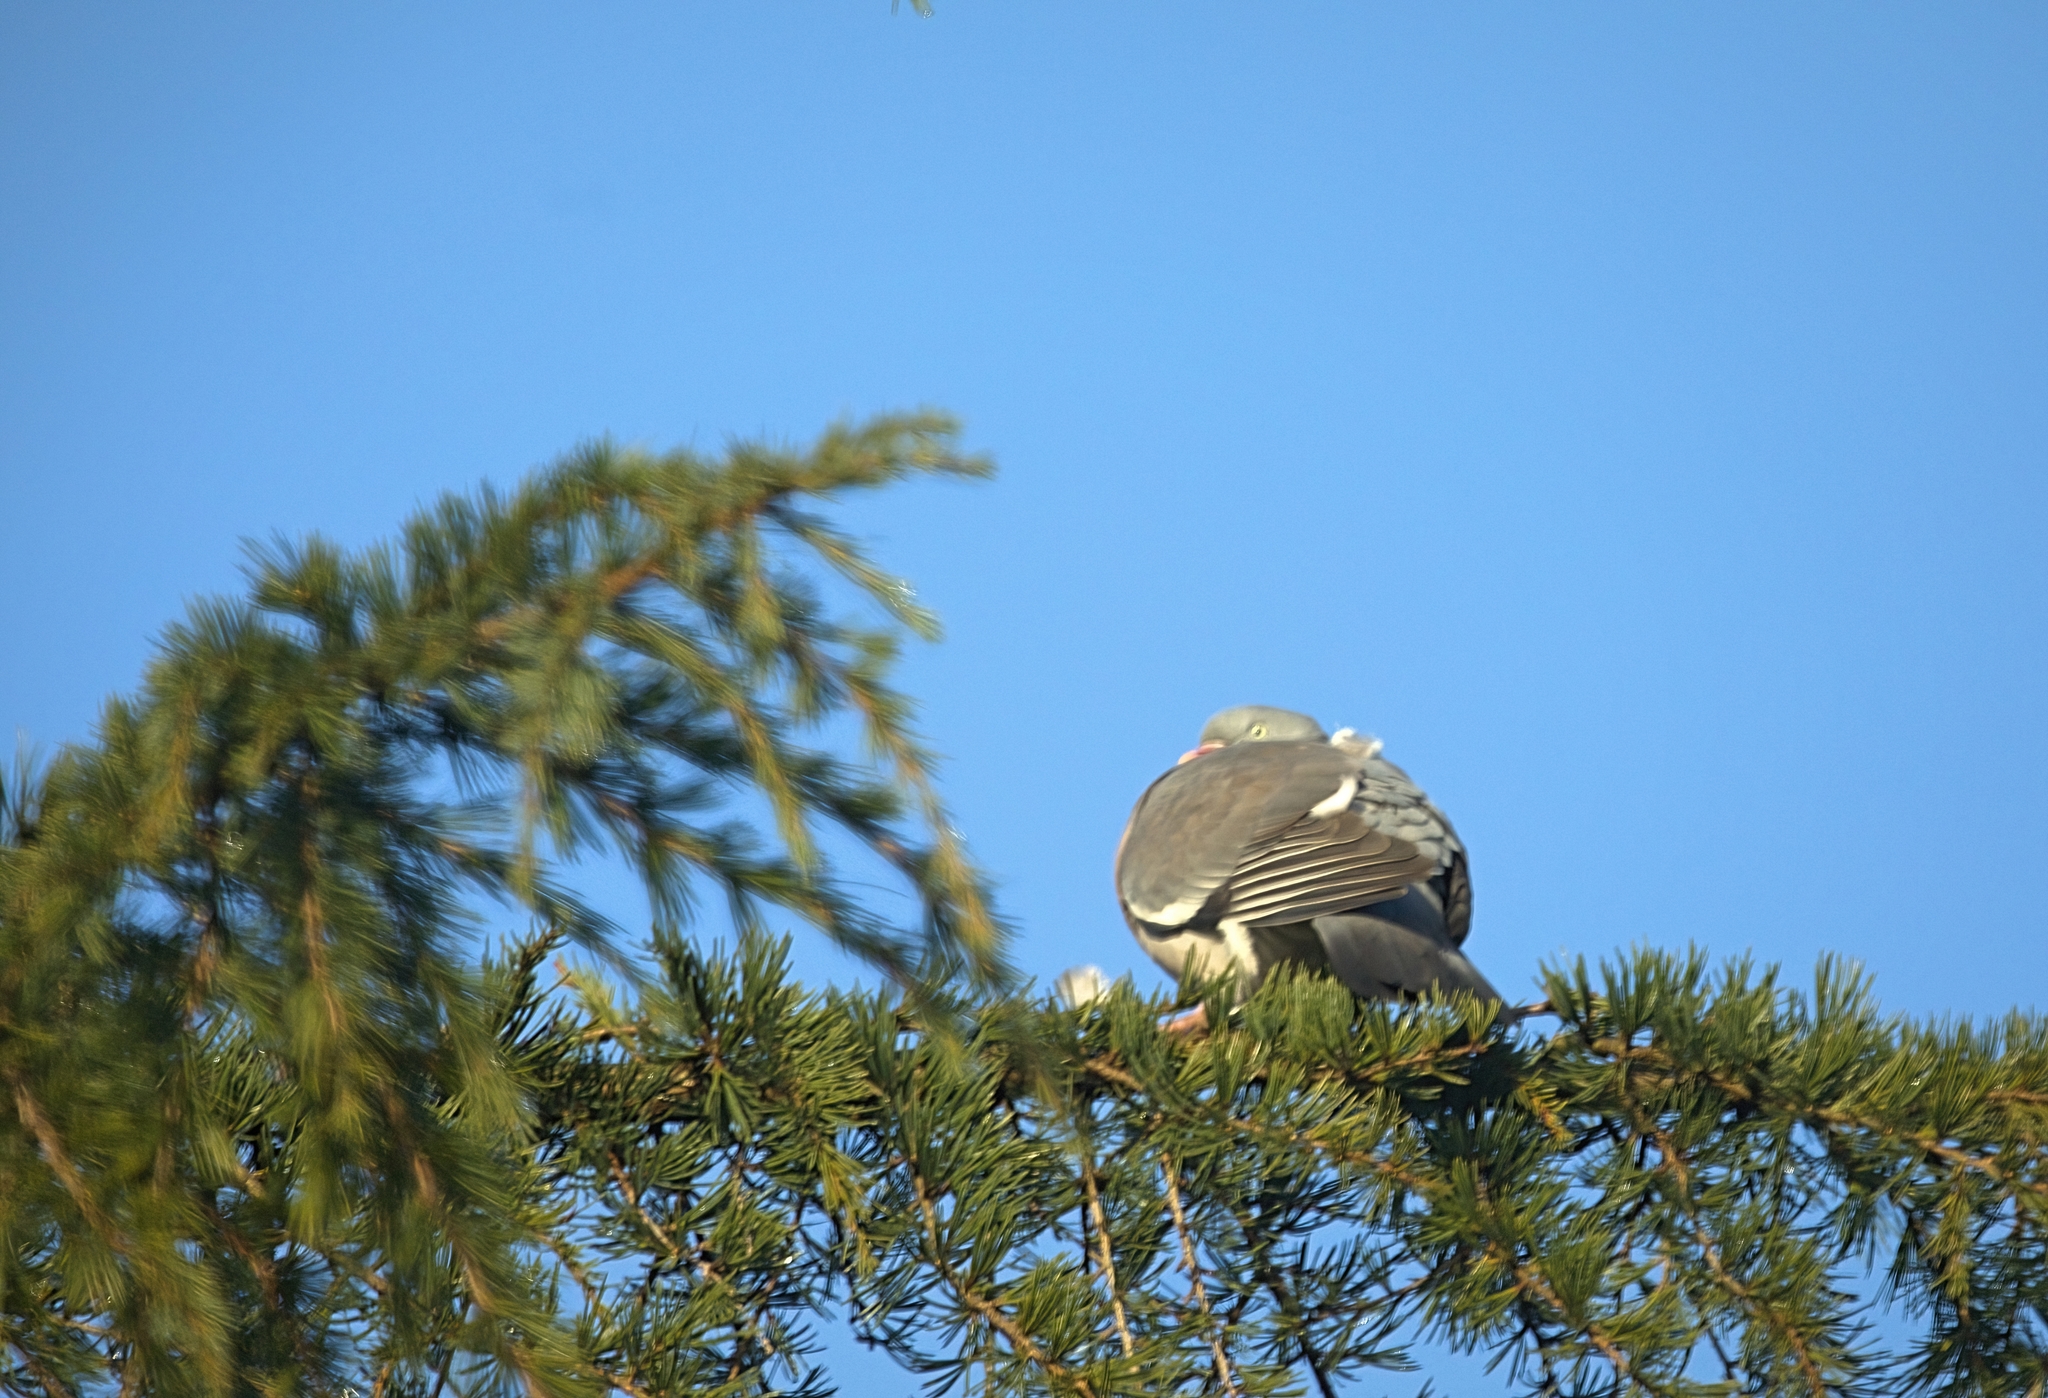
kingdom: Animalia
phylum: Chordata
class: Aves
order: Columbiformes
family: Columbidae
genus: Columba
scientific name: Columba palumbus
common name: Common wood pigeon
